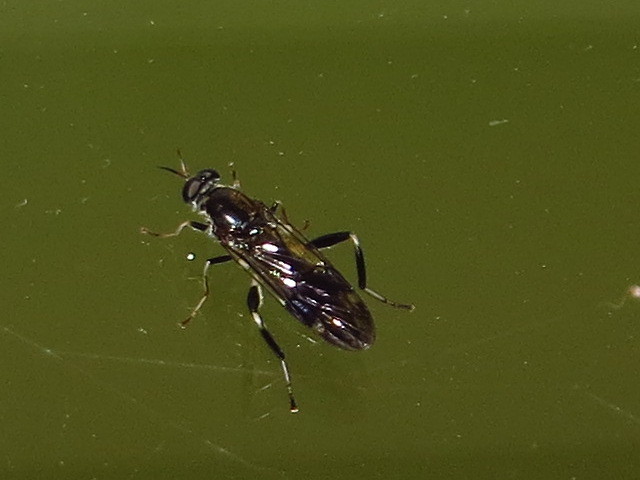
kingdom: Animalia
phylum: Arthropoda
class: Insecta
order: Diptera
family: Stratiomyidae
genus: Exaireta
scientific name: Exaireta spinigera
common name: Blue soldier fly
